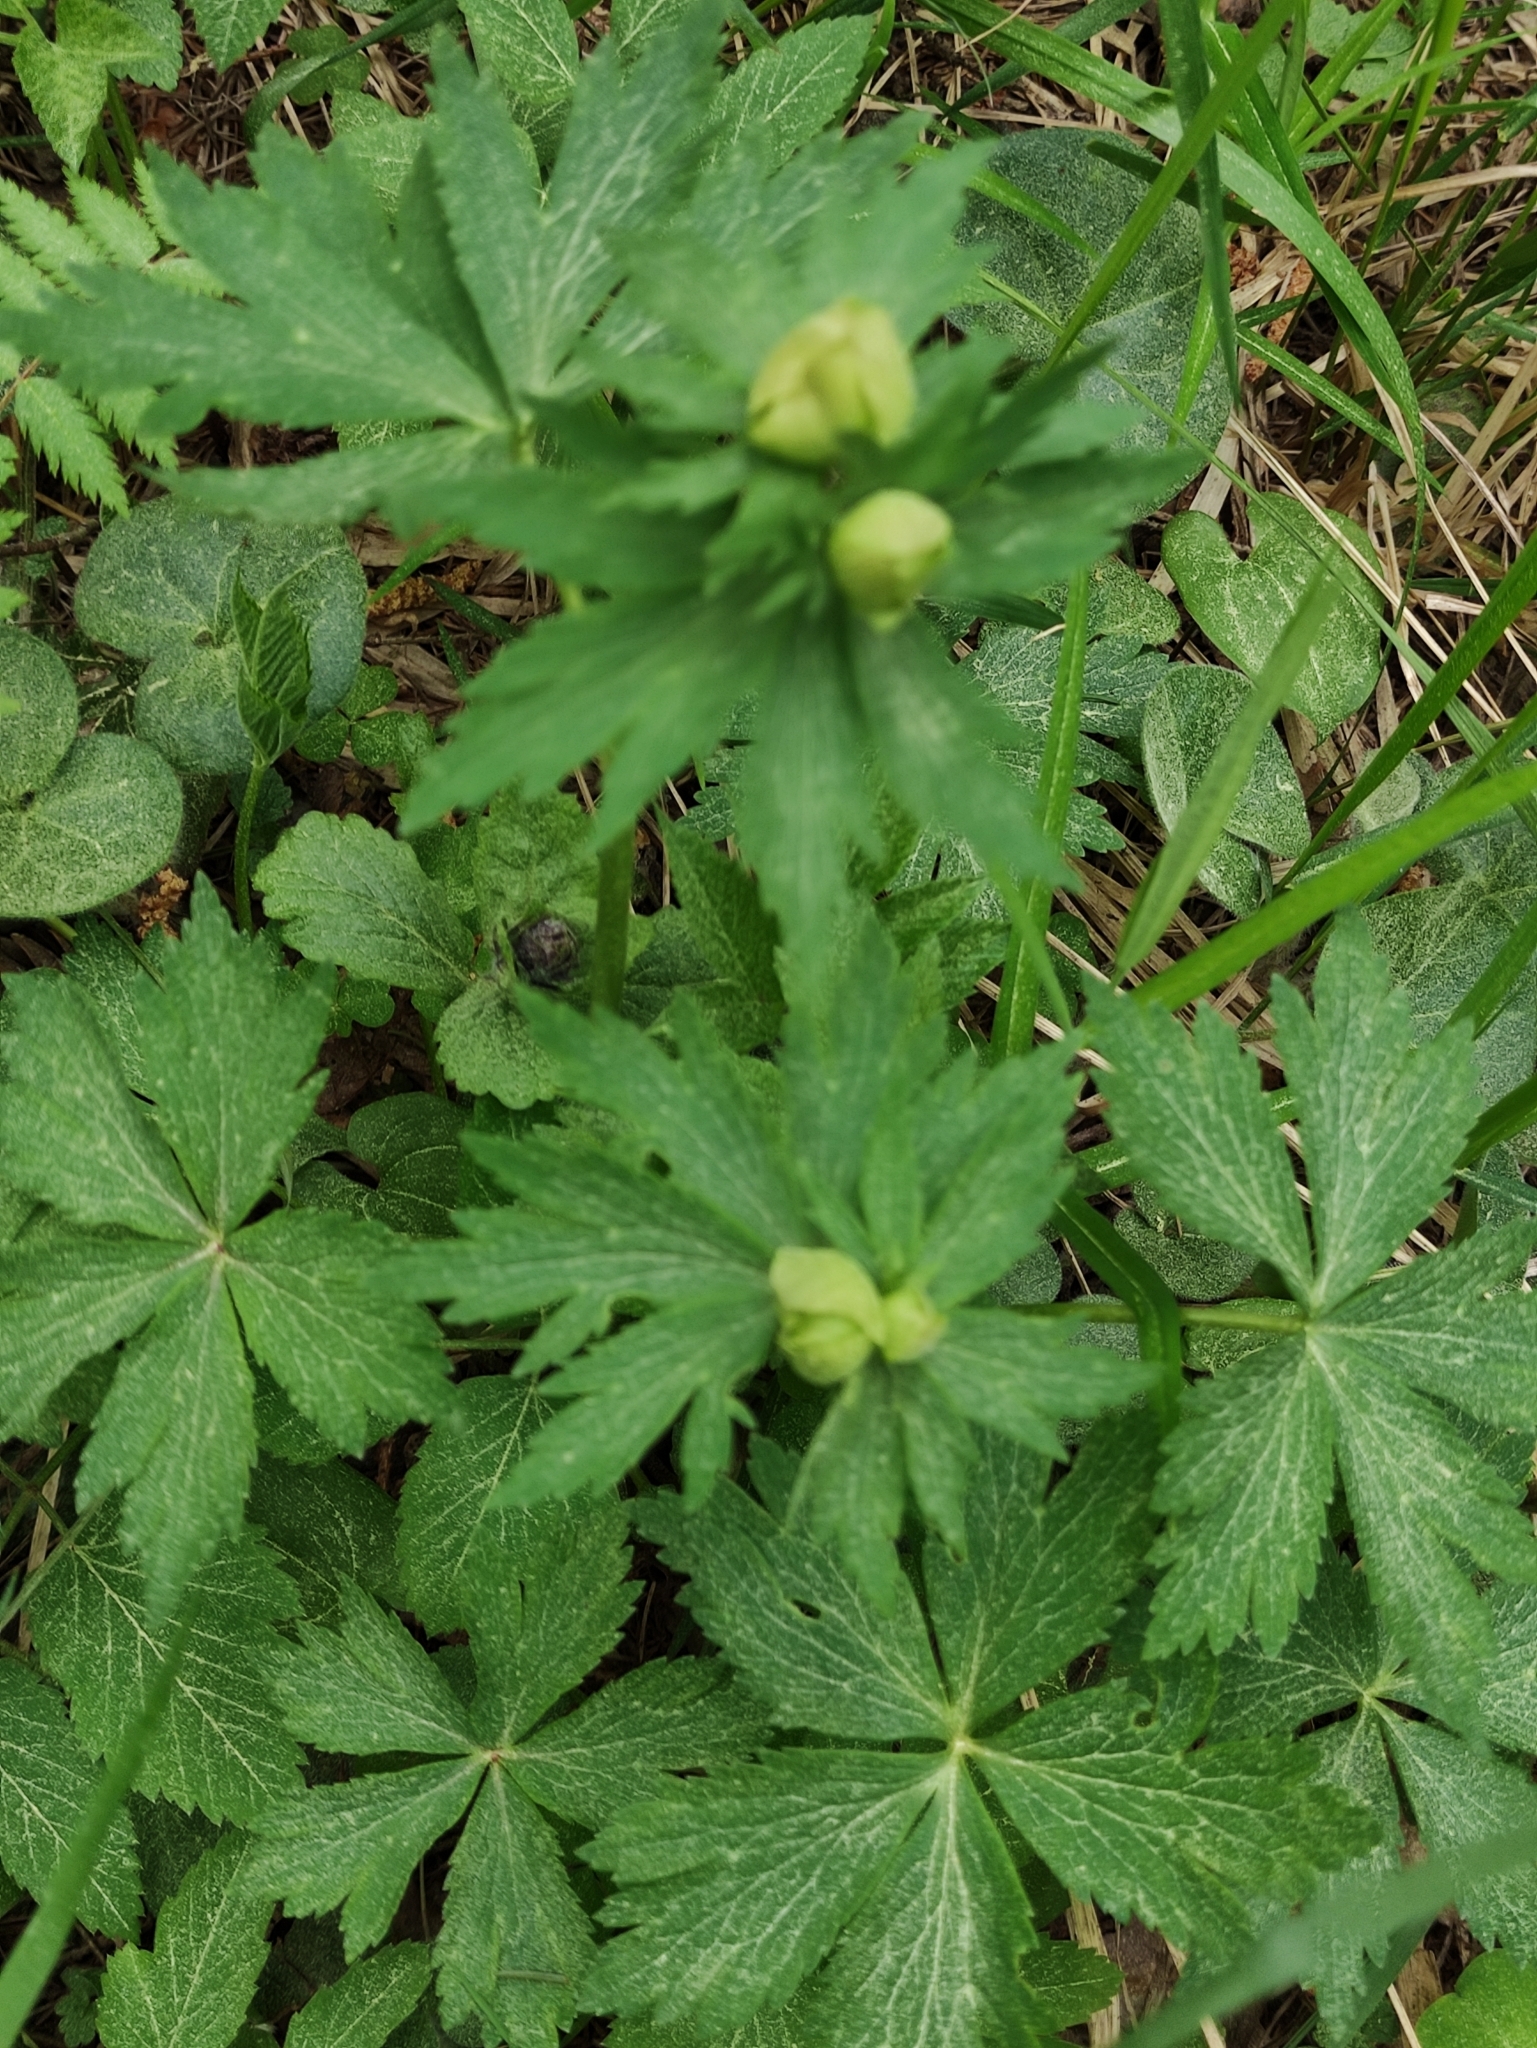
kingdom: Plantae
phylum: Tracheophyta
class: Magnoliopsida
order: Ranunculales
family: Ranunculaceae
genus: Trollius
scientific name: Trollius europaeus
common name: European globeflower
